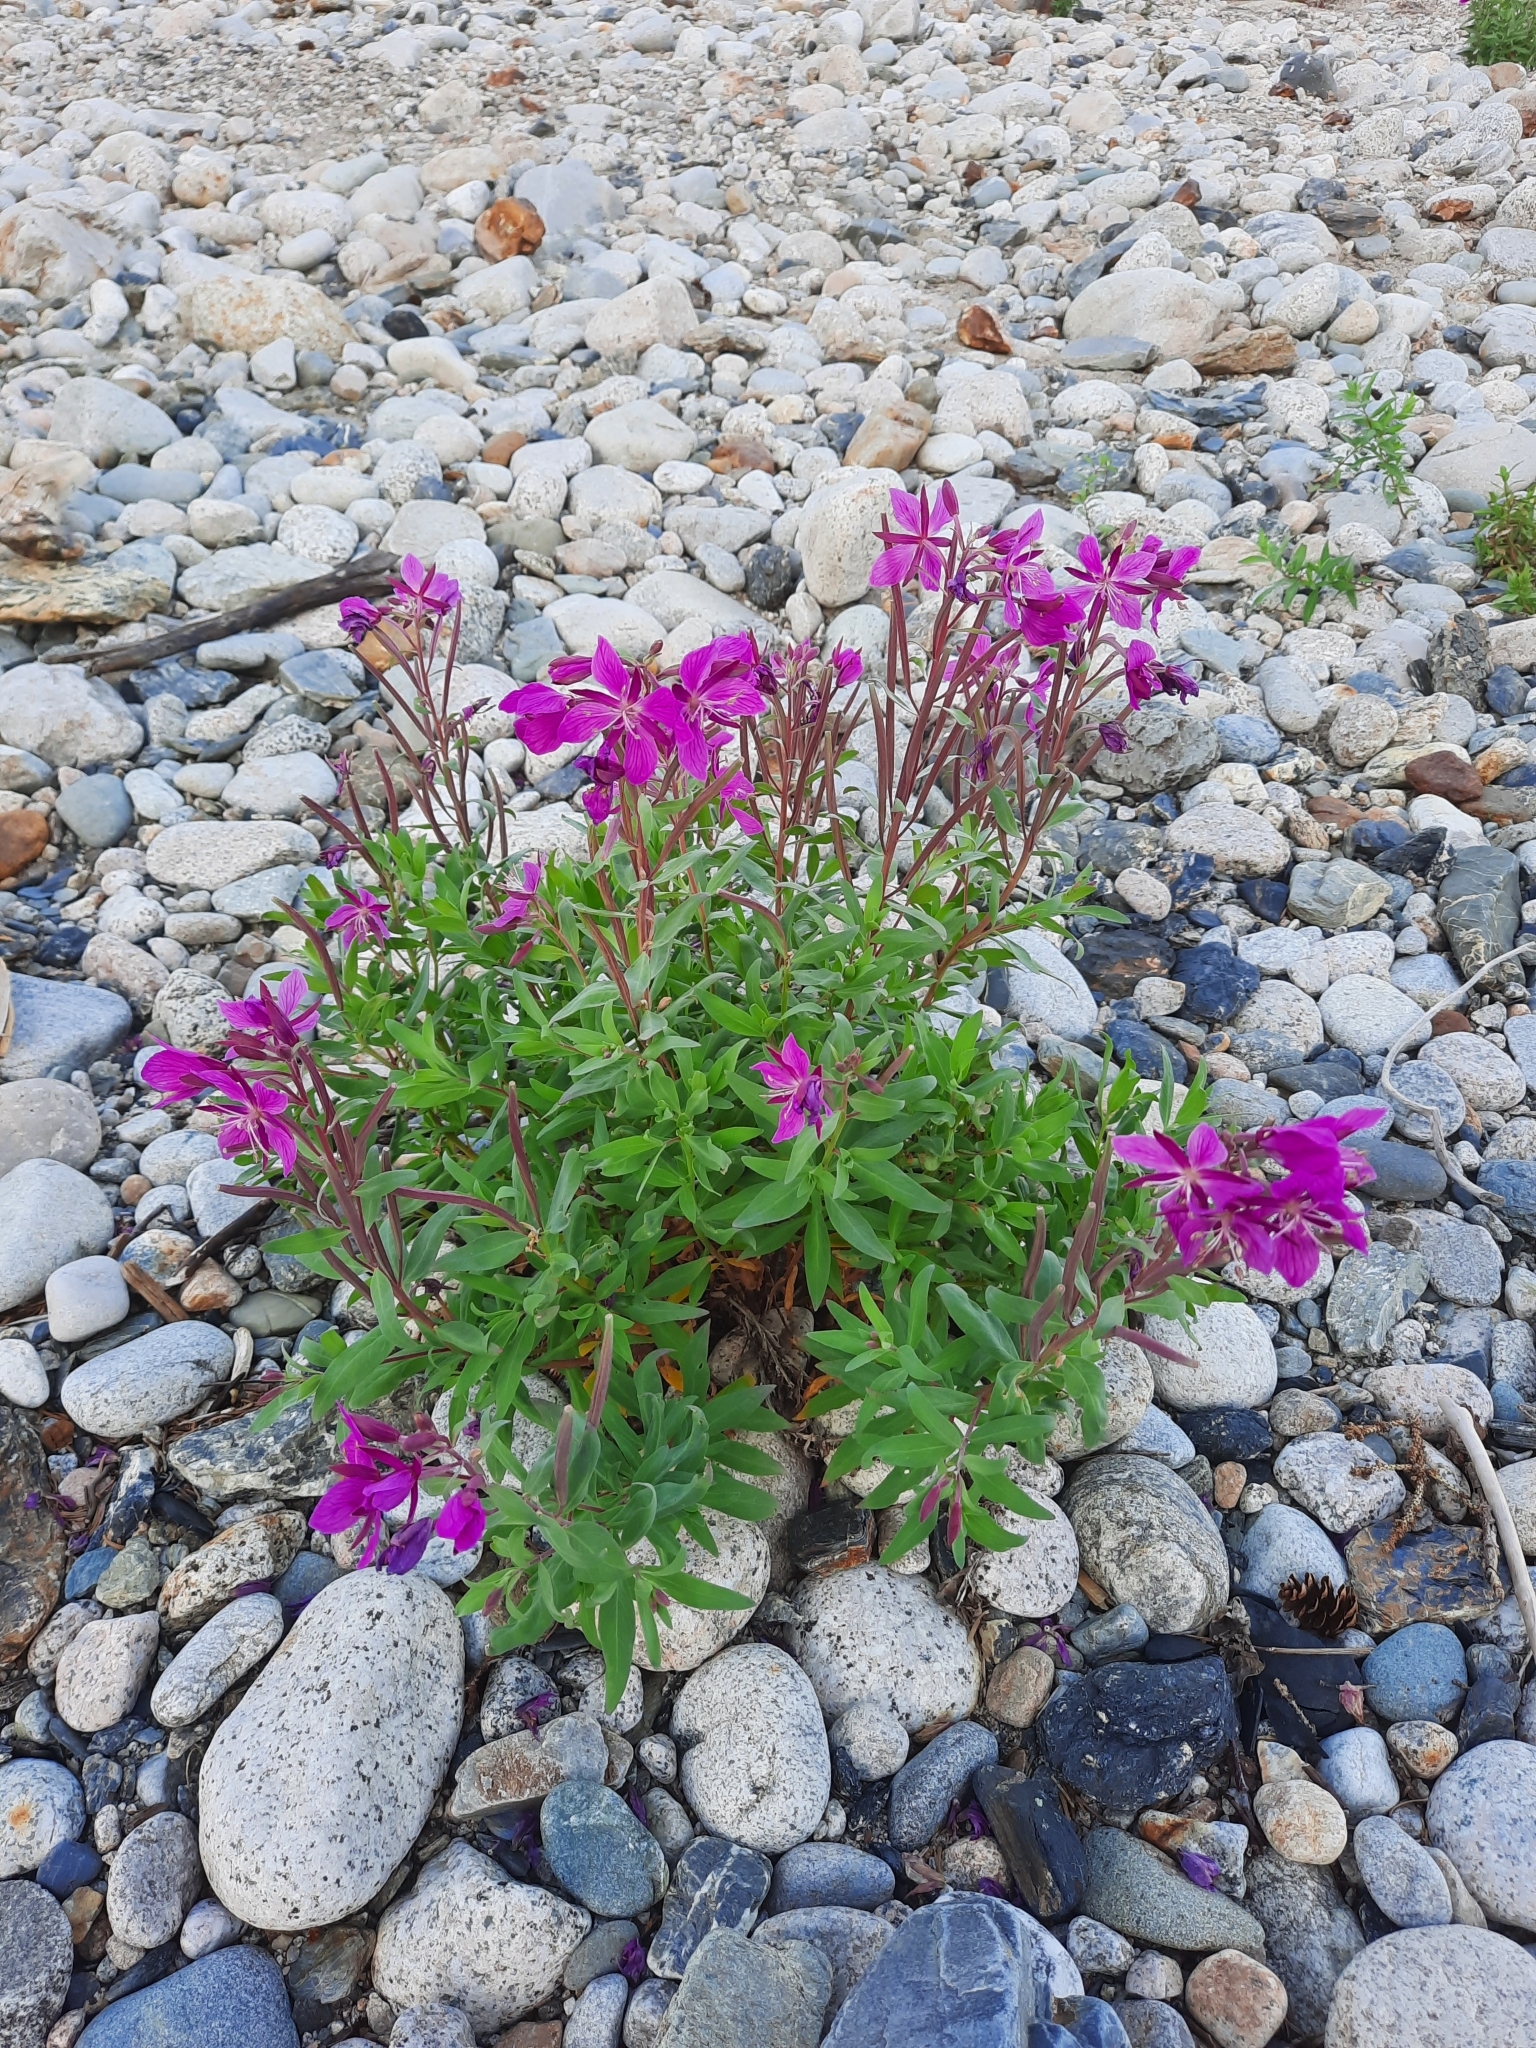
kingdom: Plantae
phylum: Tracheophyta
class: Magnoliopsida
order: Myrtales
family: Onagraceae
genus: Chamaenerion
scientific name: Chamaenerion latifolium
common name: Dwarf fireweed
